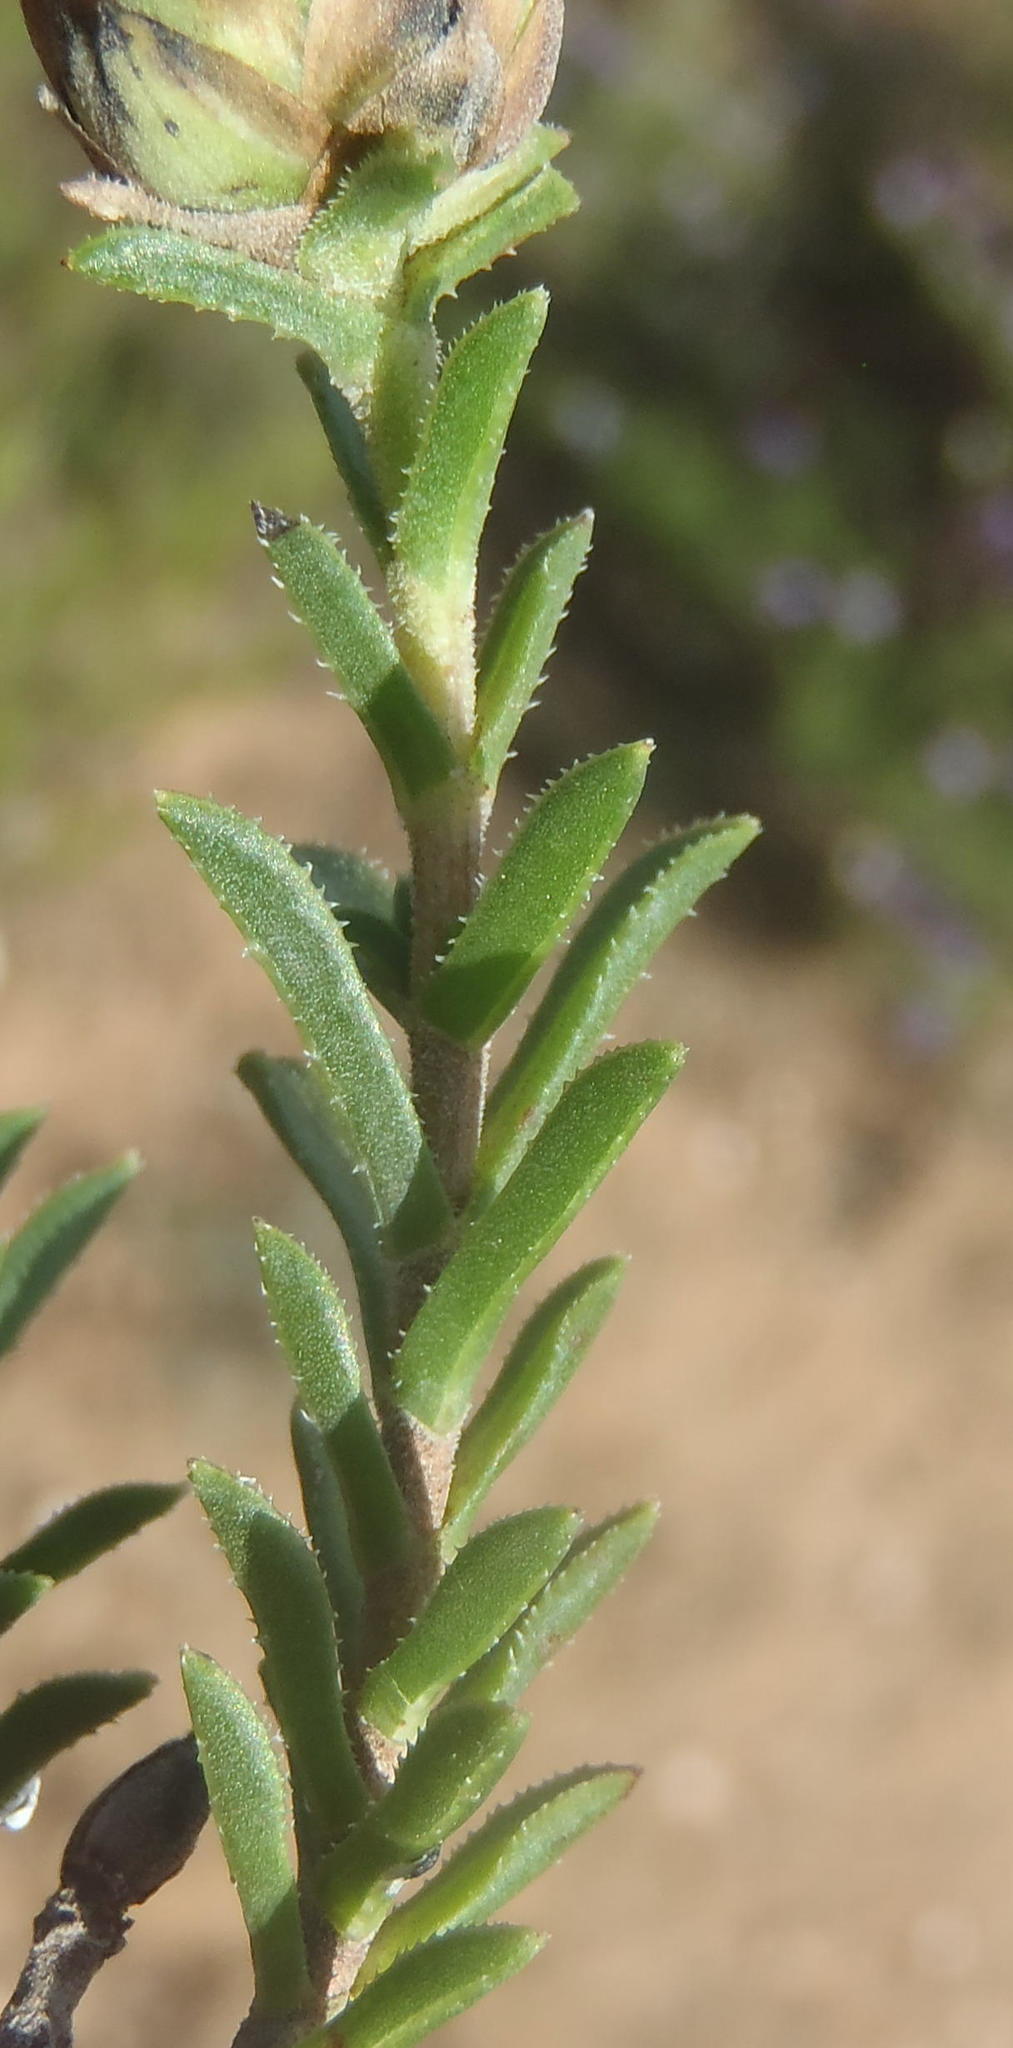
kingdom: Plantae
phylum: Tracheophyta
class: Magnoliopsida
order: Asterales
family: Asteraceae
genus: Pteronia
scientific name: Pteronia staehelinoides
